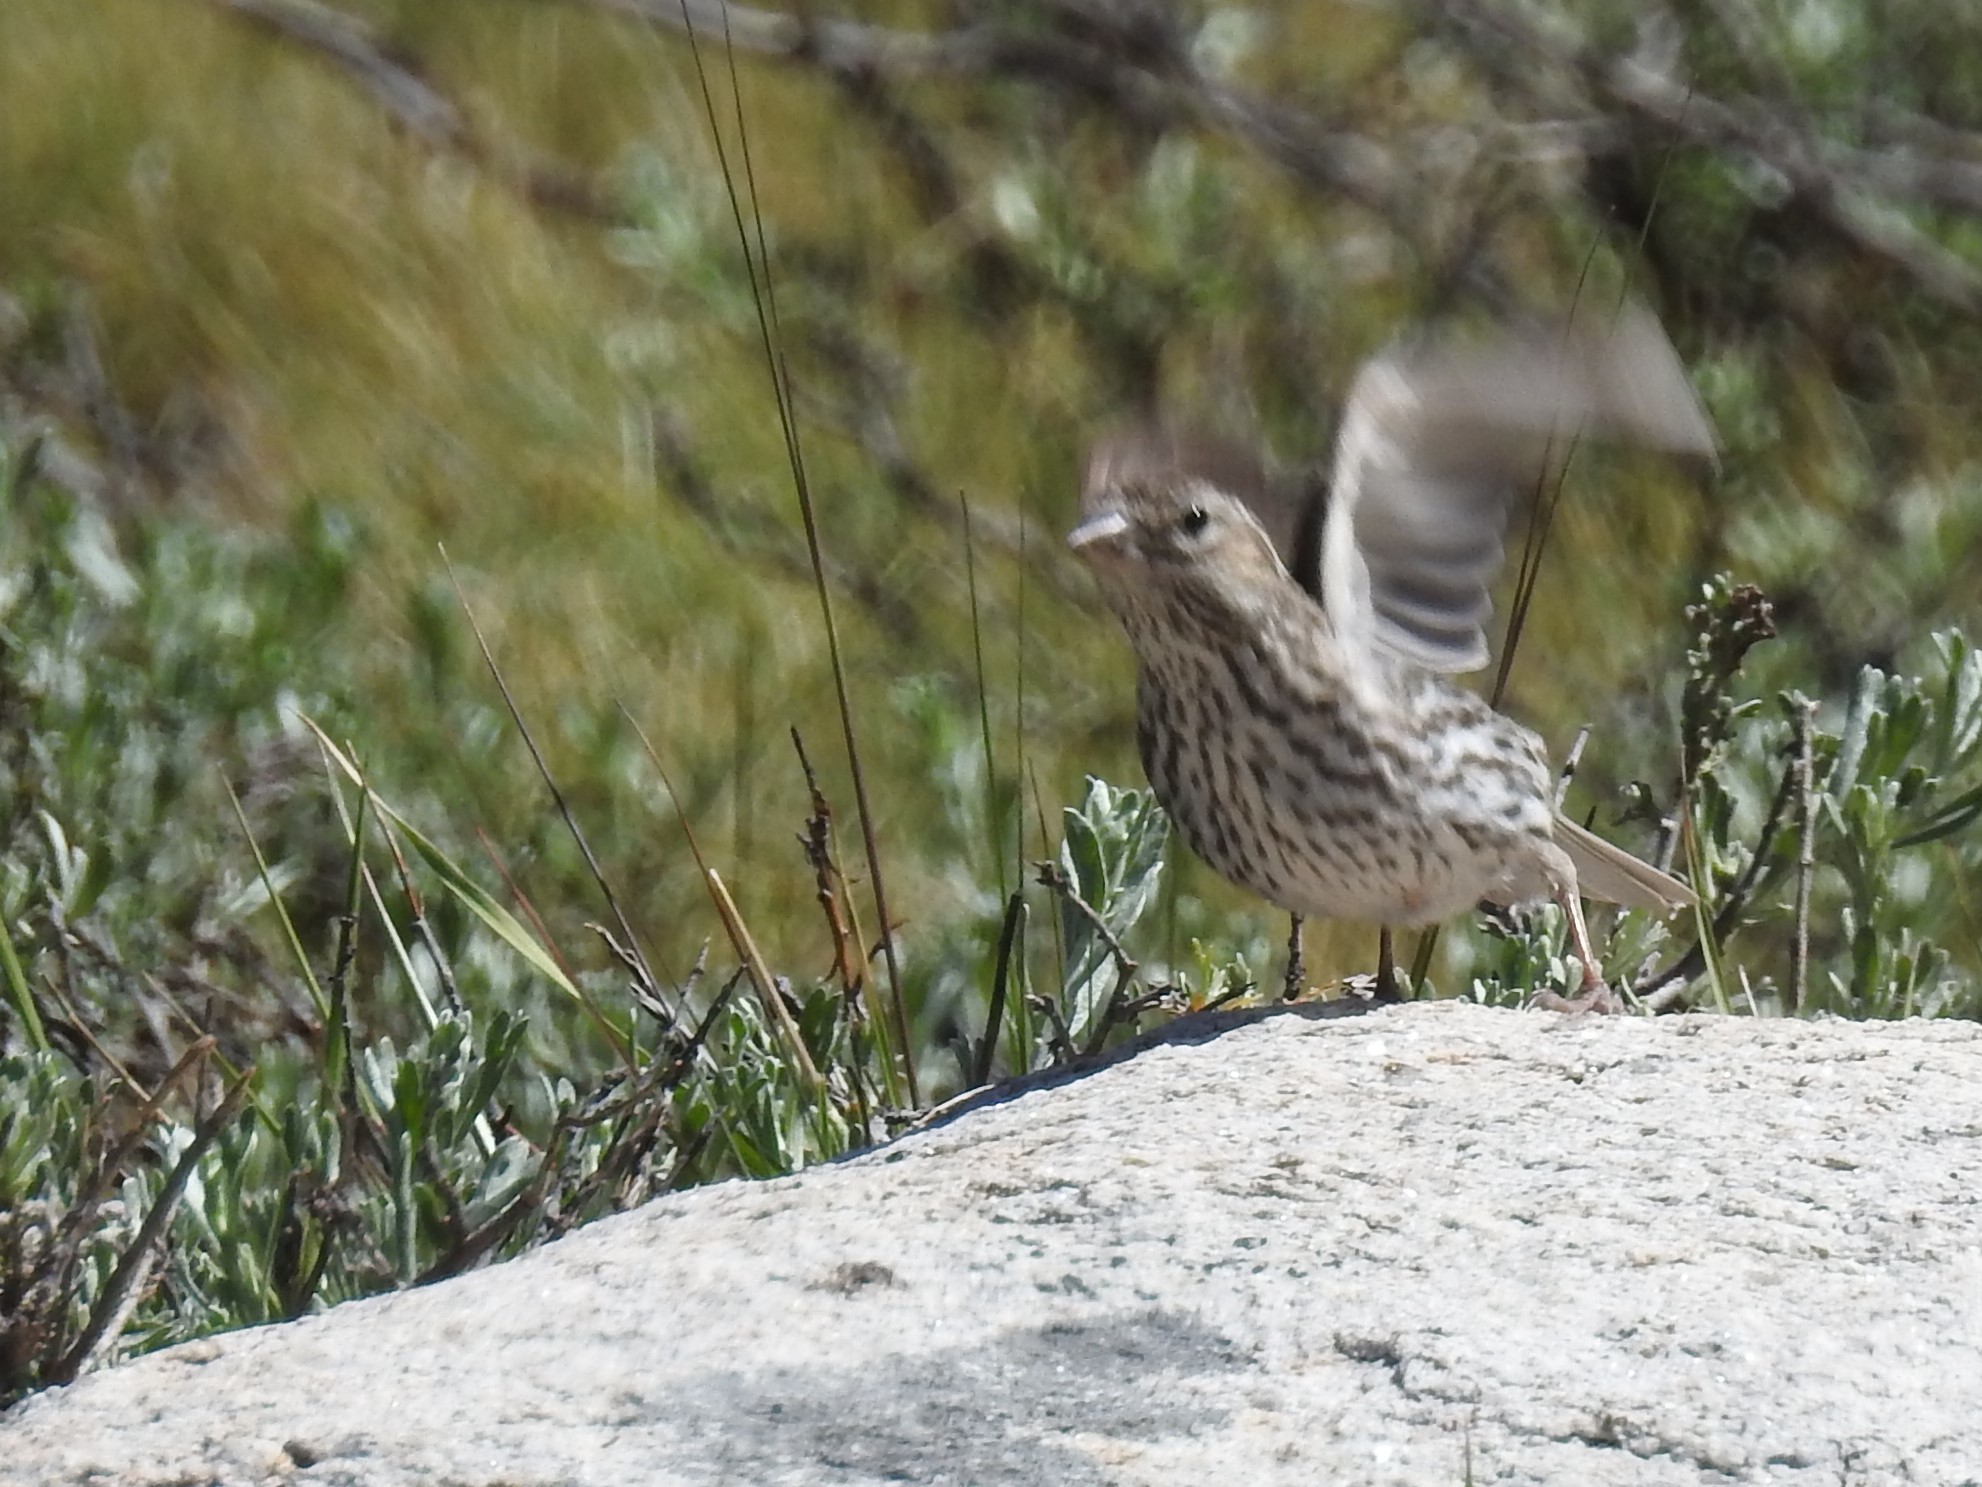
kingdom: Animalia
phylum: Chordata
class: Aves
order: Passeriformes
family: Fringillidae
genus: Haemorhous
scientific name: Haemorhous cassinii
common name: Cassin's finch
